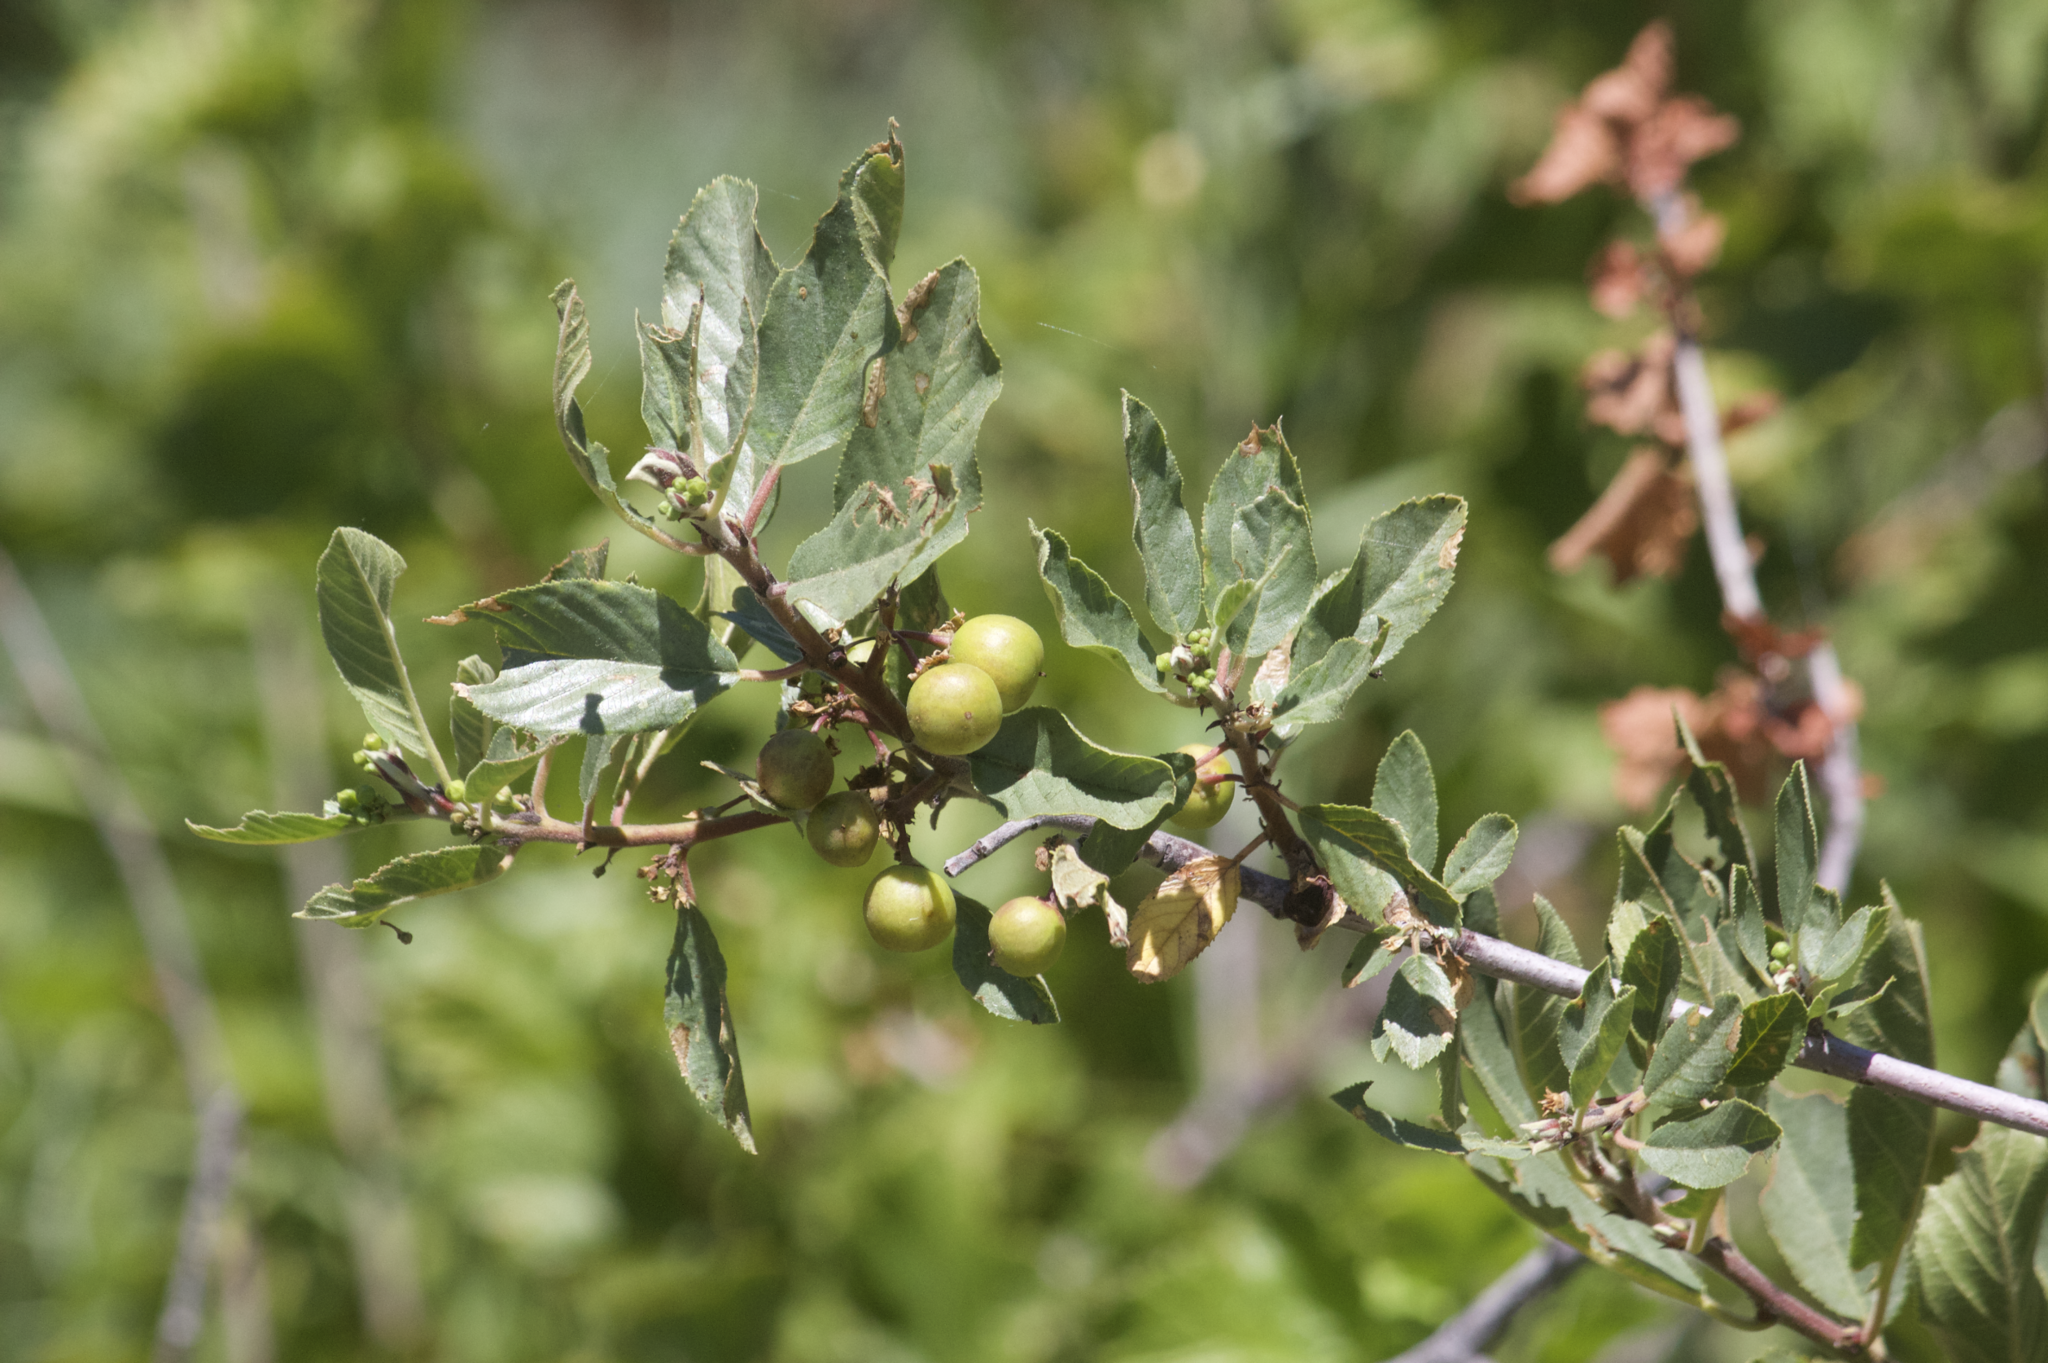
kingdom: Plantae
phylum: Tracheophyta
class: Magnoliopsida
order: Rosales
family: Rhamnaceae
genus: Frangula
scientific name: Frangula californica
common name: California buckthorn
